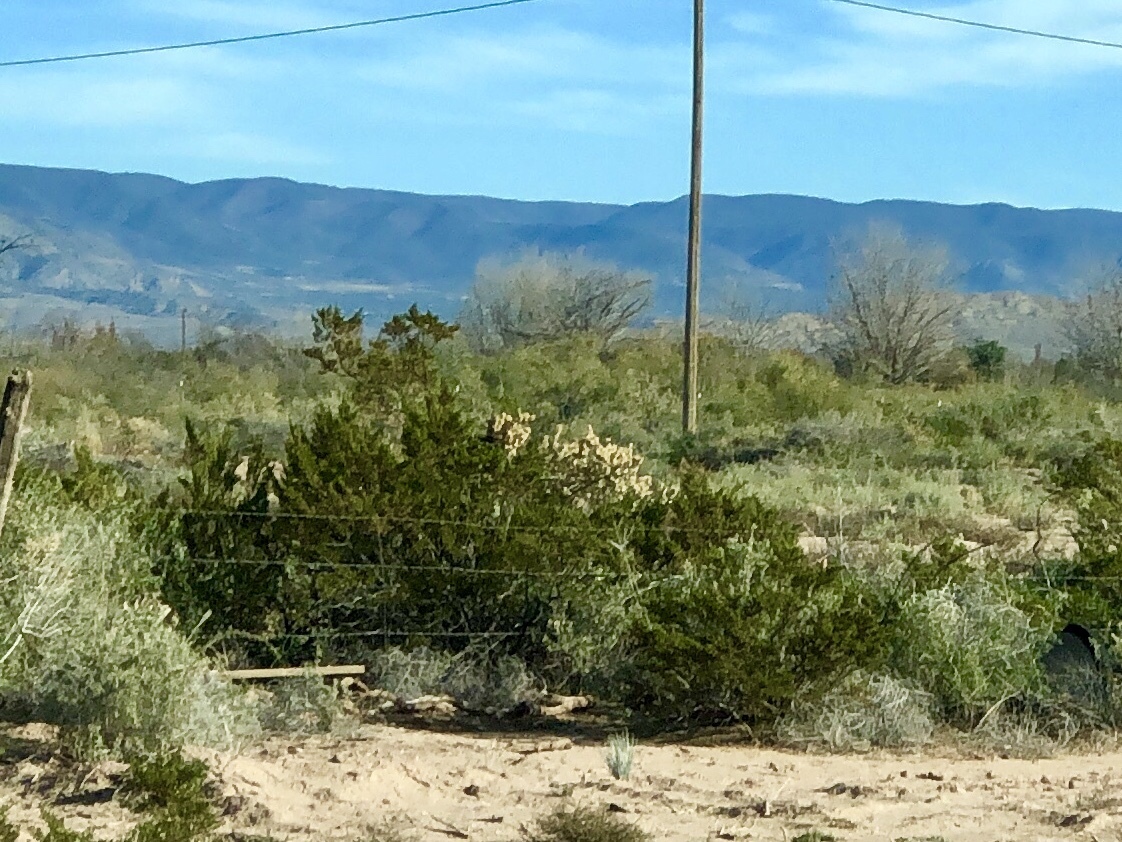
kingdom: Plantae
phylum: Tracheophyta
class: Magnoliopsida
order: Zygophyllales
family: Zygophyllaceae
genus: Larrea
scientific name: Larrea tridentata
